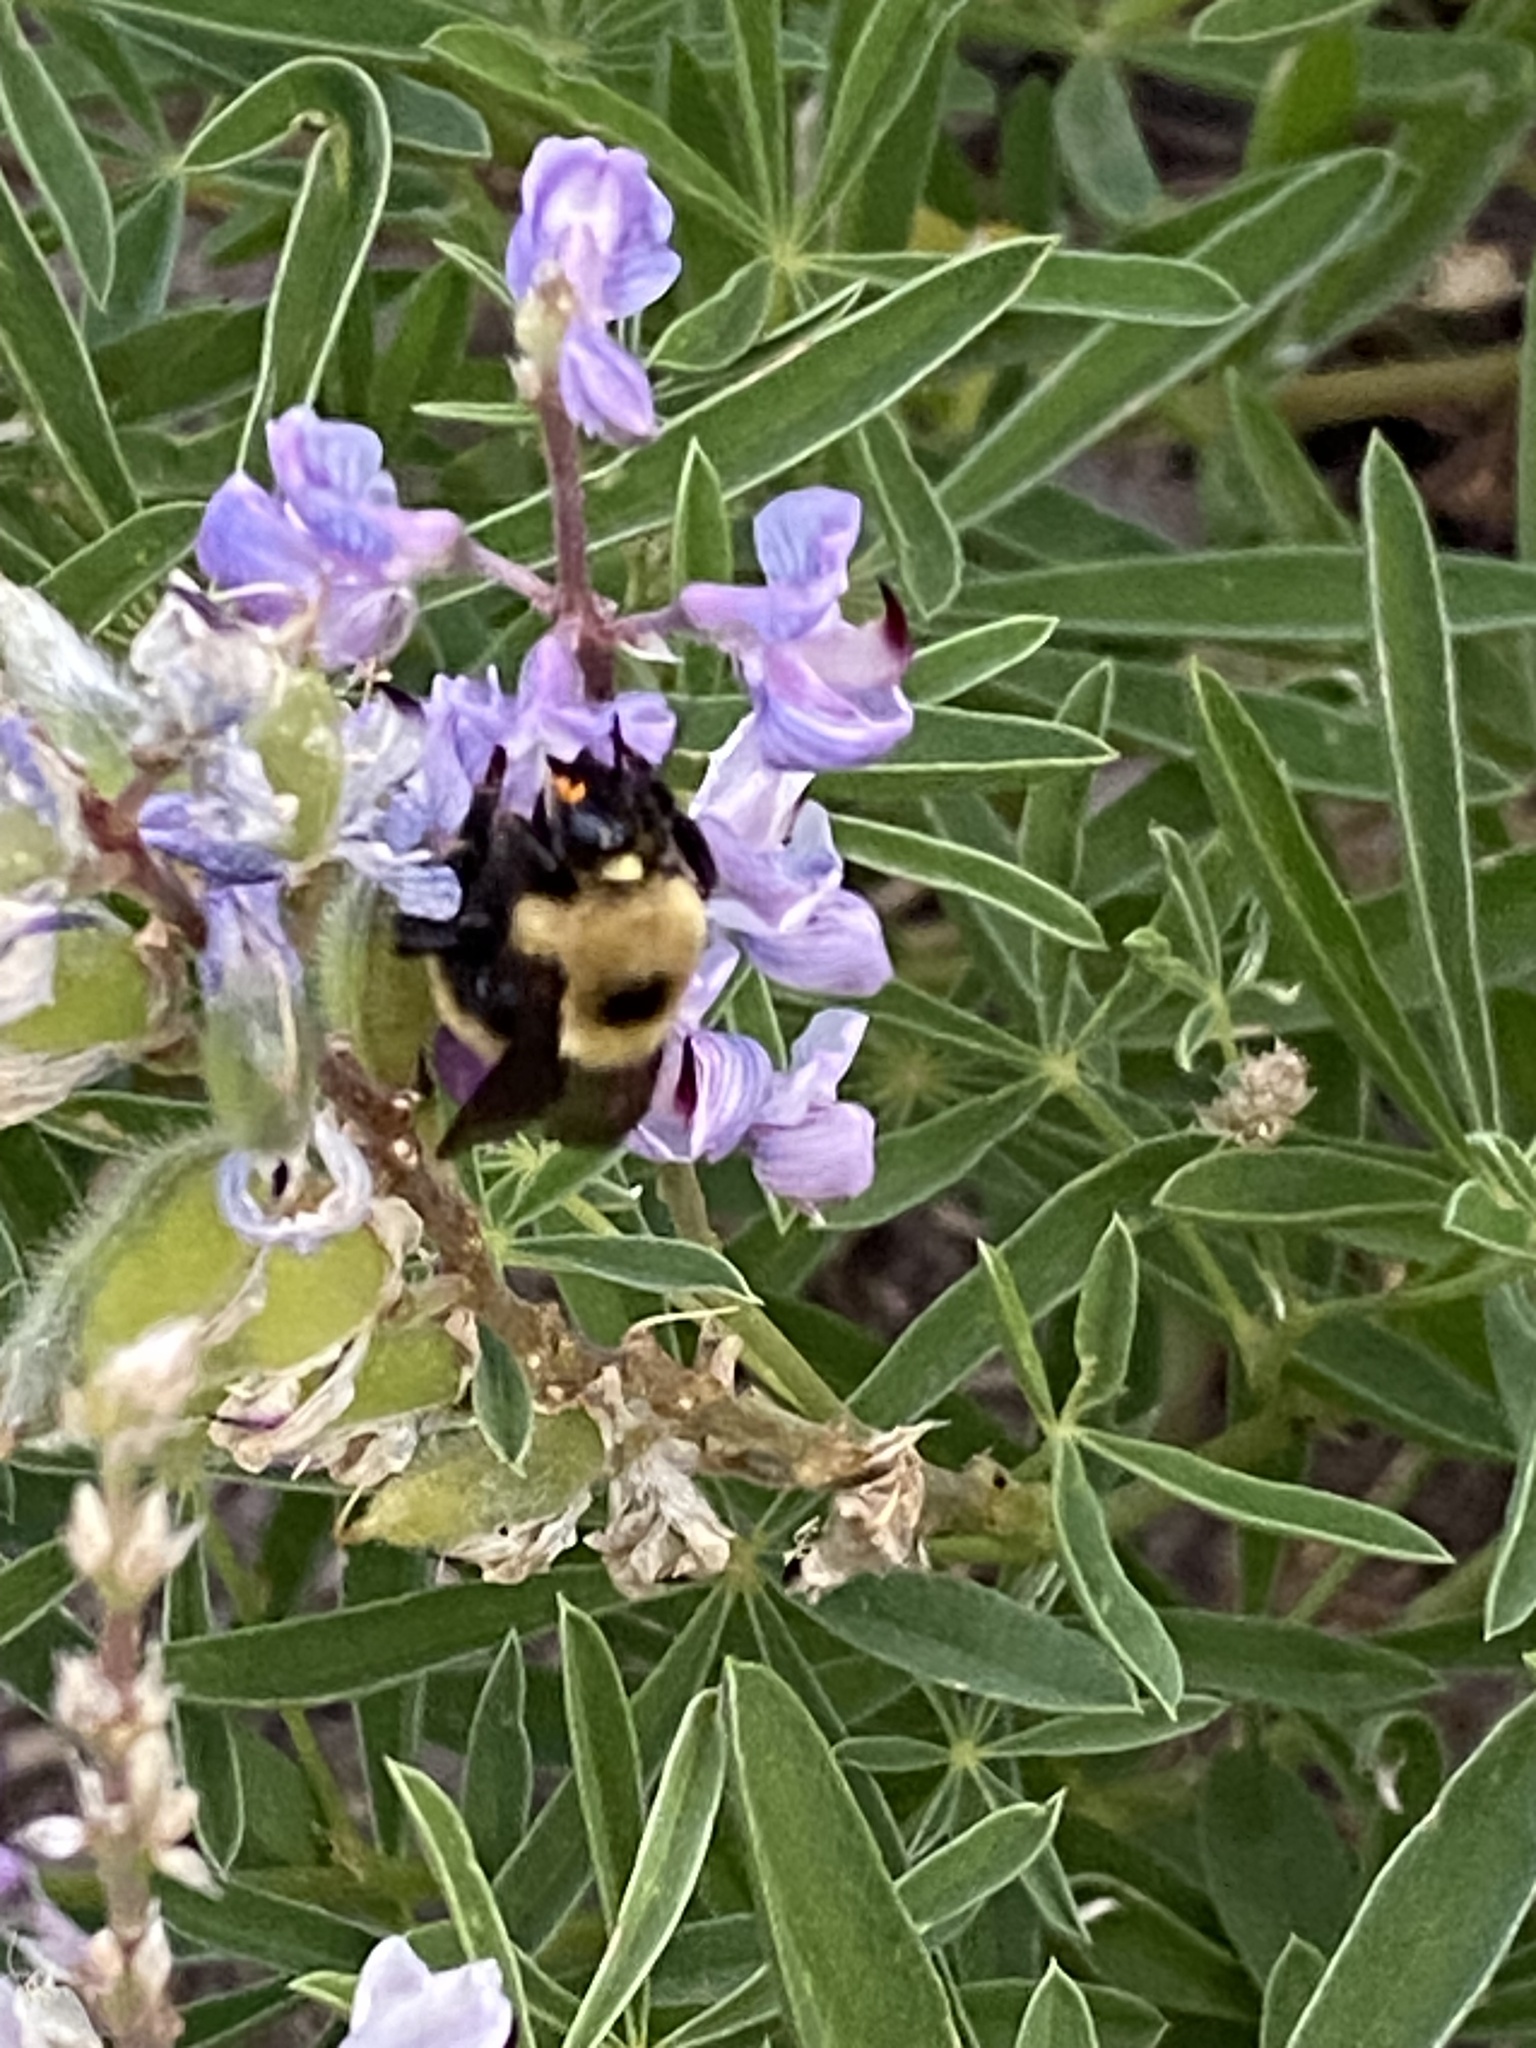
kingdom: Animalia
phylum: Arthropoda
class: Insecta
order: Hymenoptera
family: Apidae
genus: Bombus
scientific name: Bombus nevadensis
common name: Nevada bumble bee
